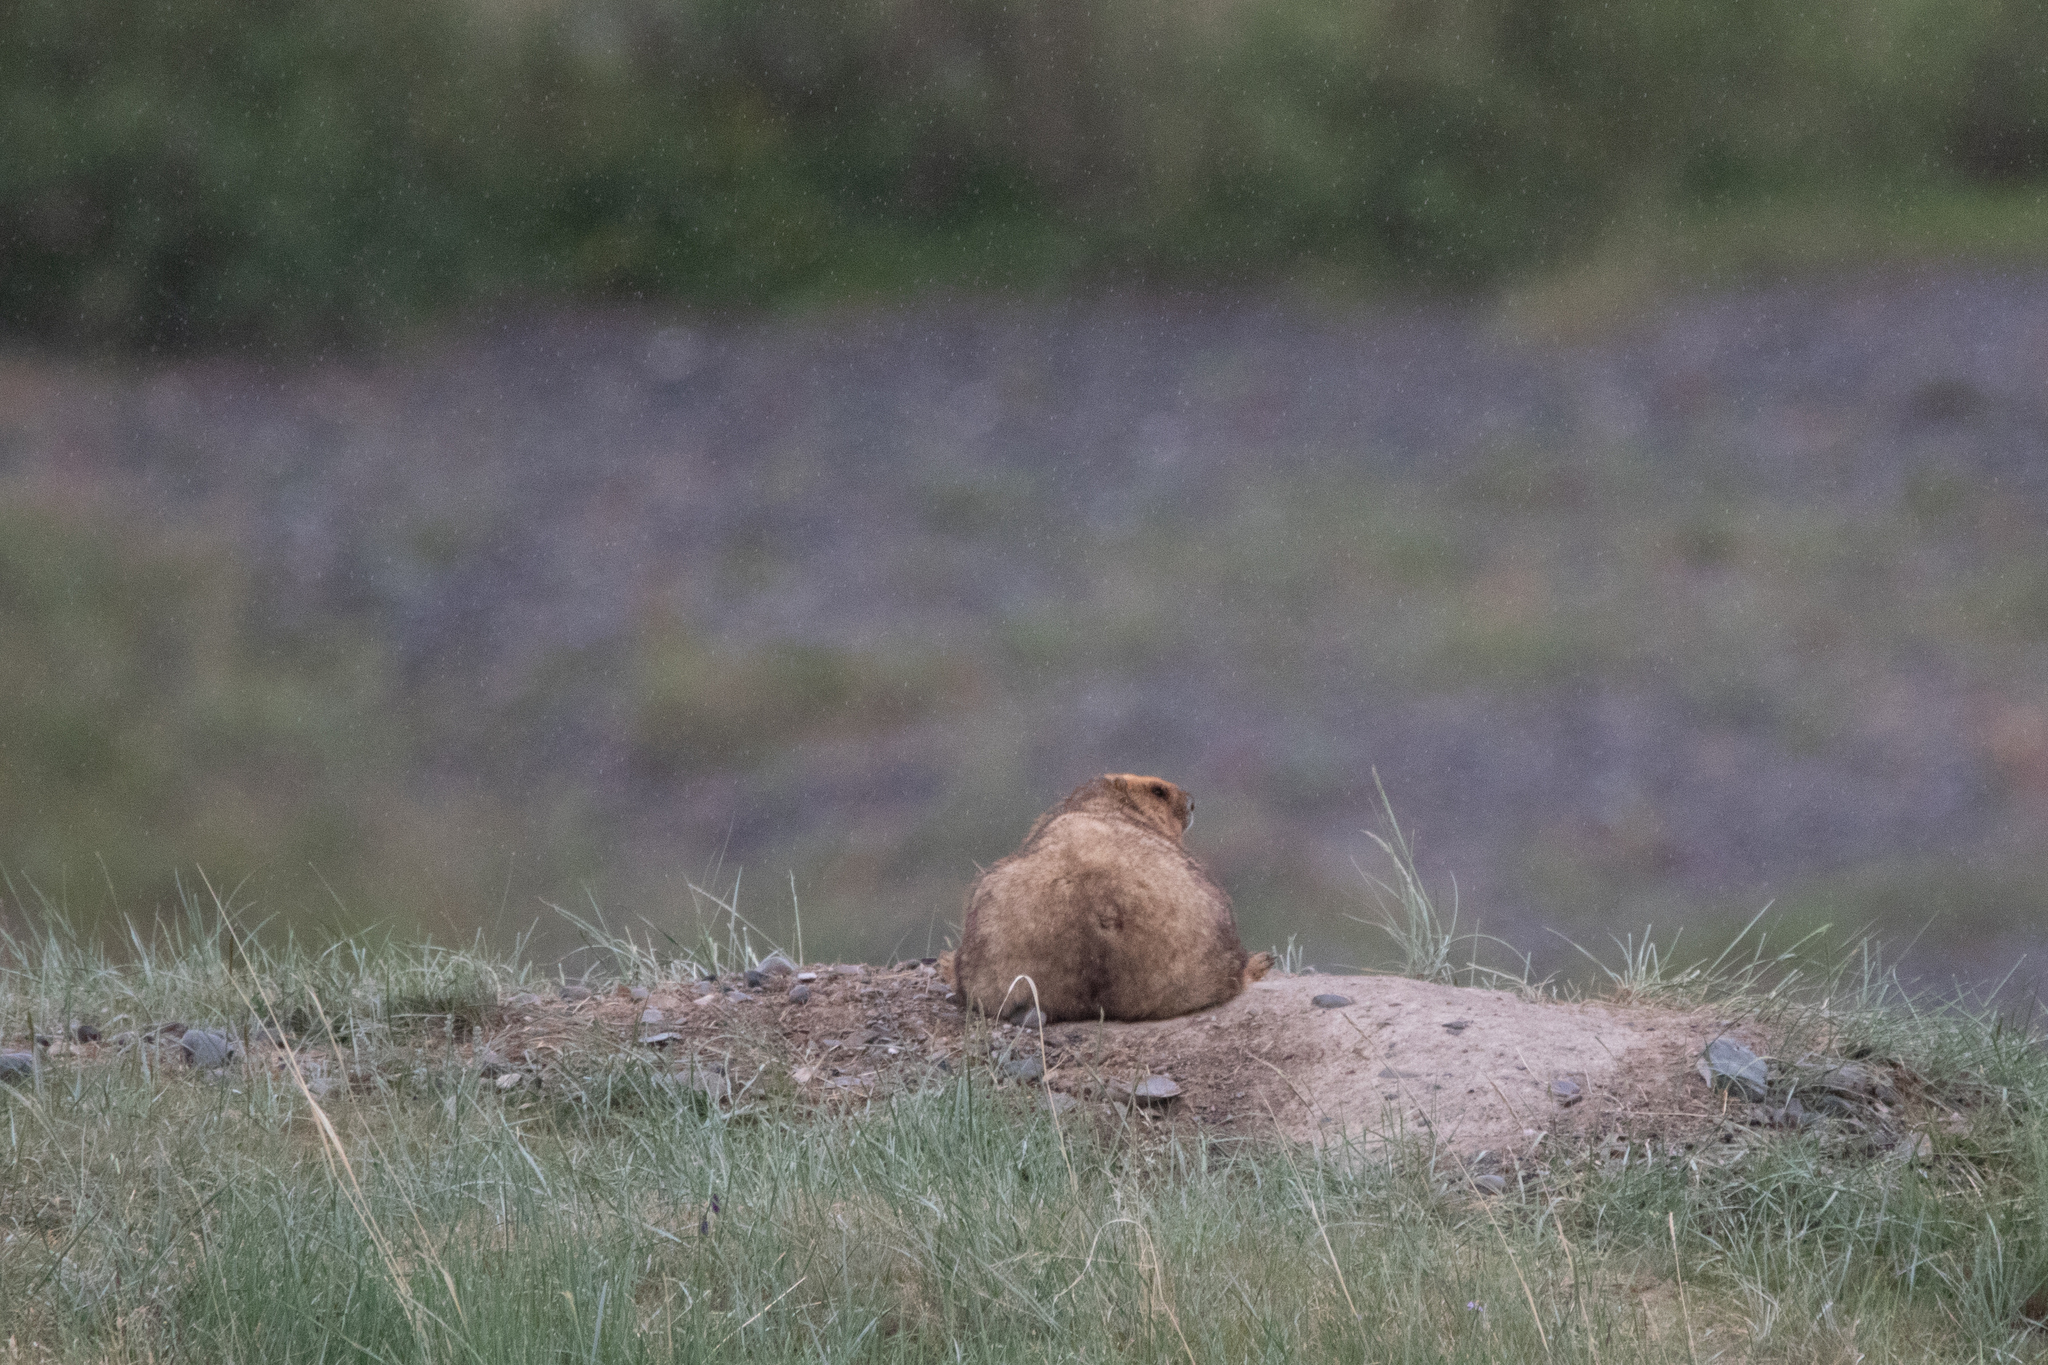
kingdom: Animalia
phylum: Chordata
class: Mammalia
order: Rodentia
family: Sciuridae
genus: Marmota
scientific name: Marmota baibacina
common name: Gray marmot
